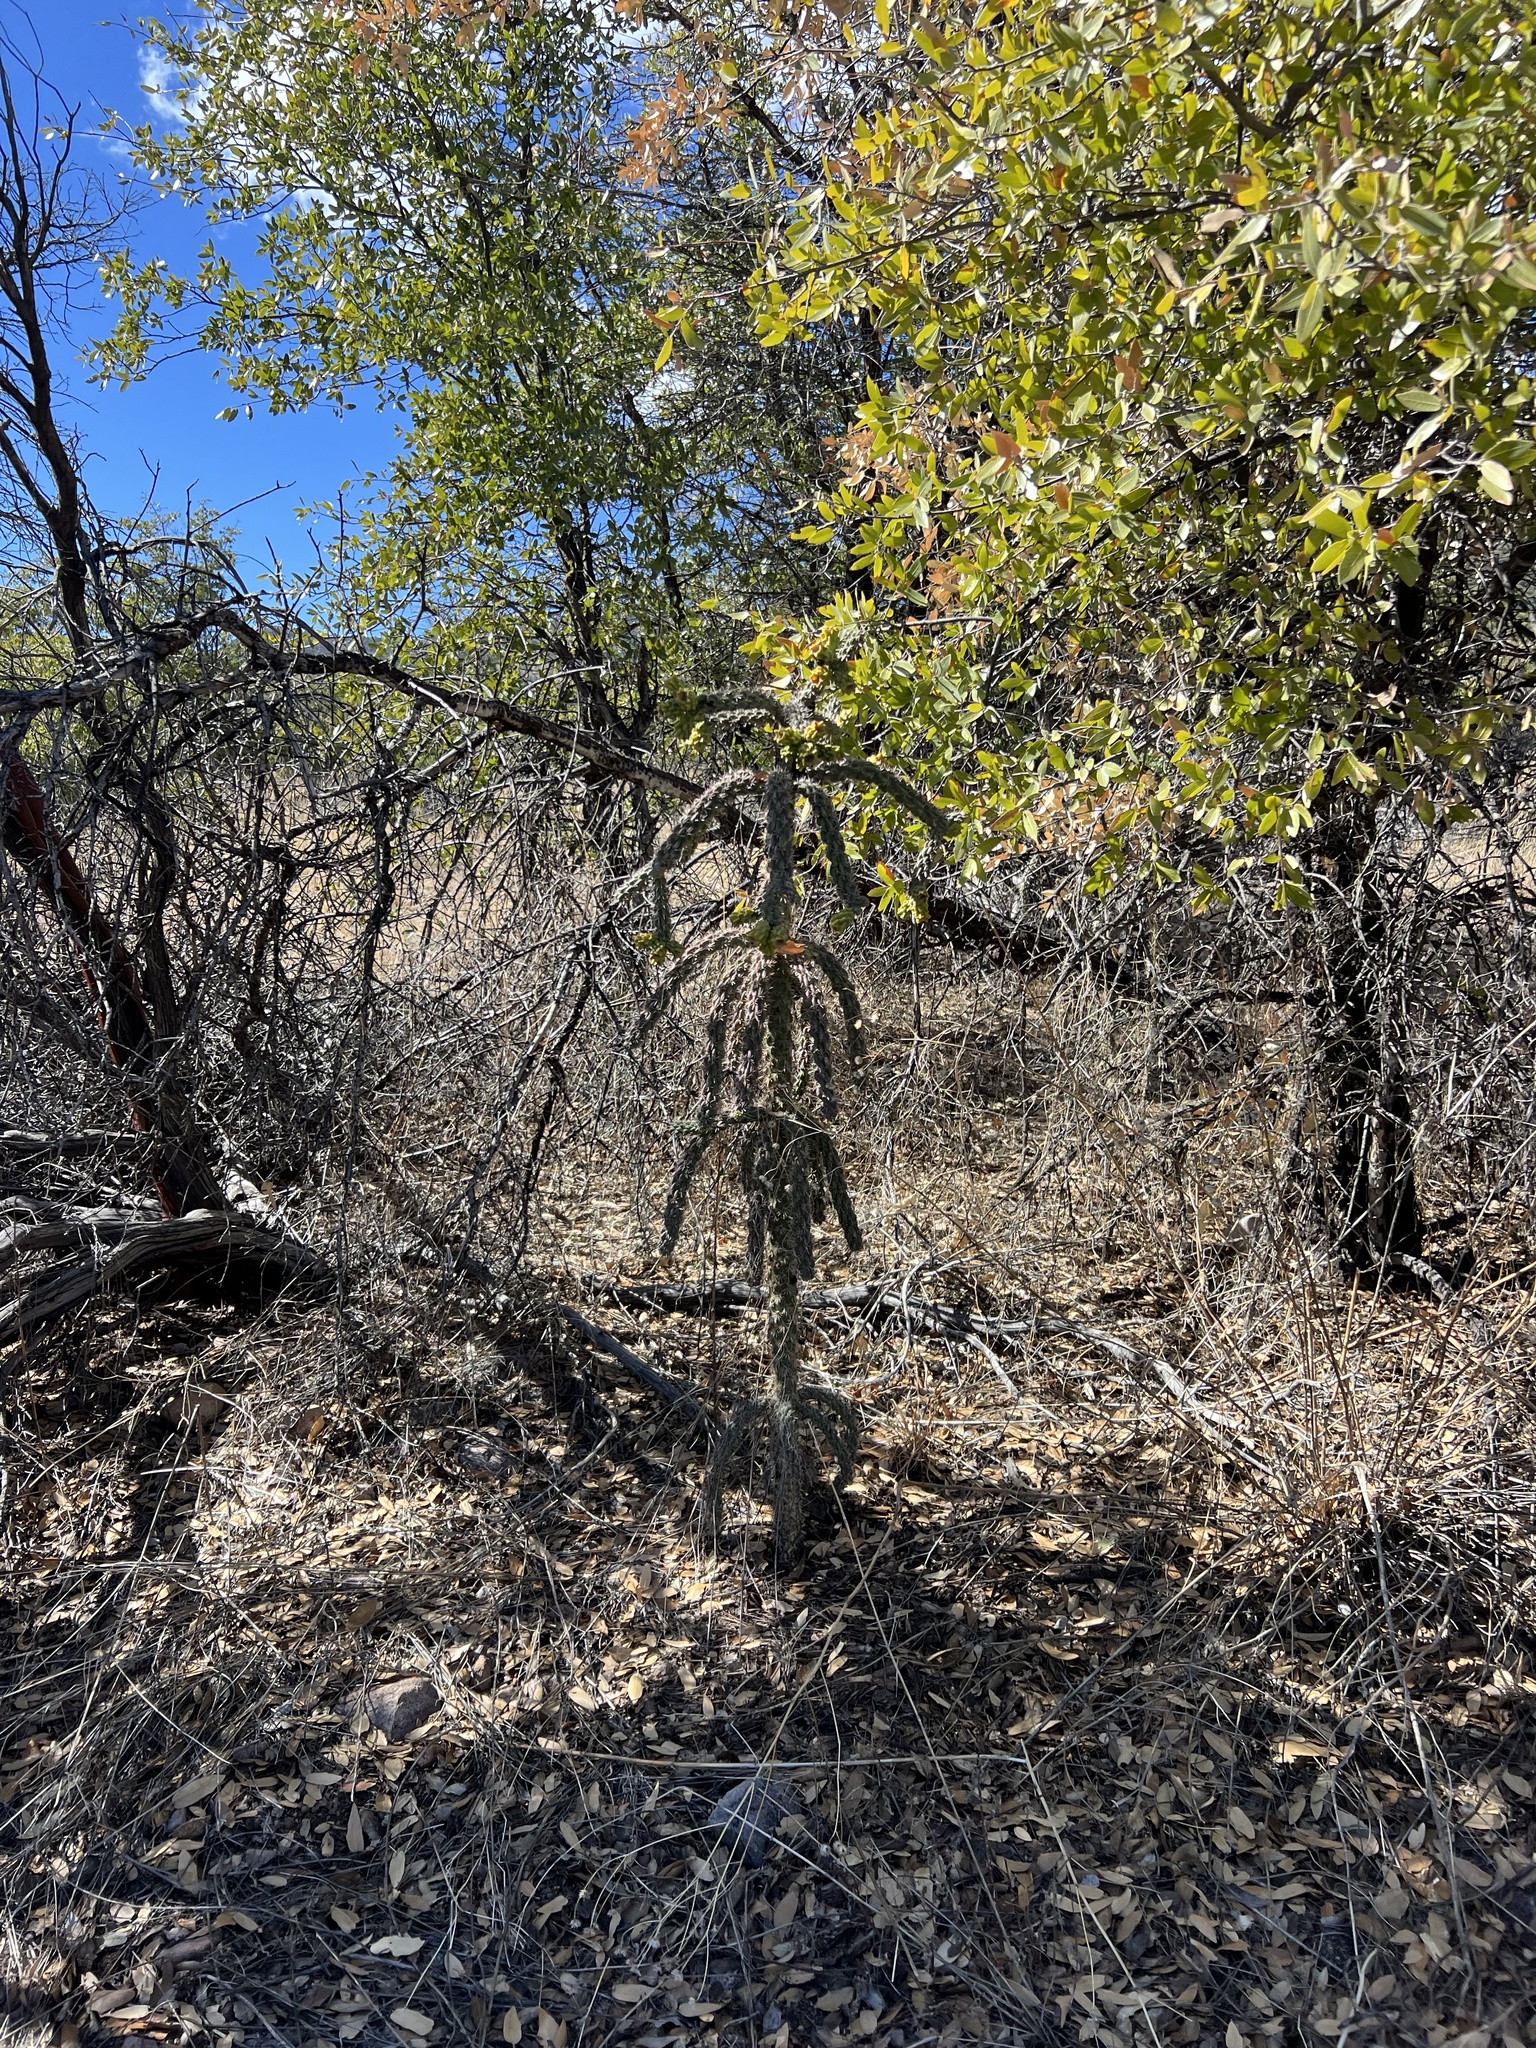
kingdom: Plantae
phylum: Tracheophyta
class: Magnoliopsida
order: Caryophyllales
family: Cactaceae
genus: Cylindropuntia
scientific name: Cylindropuntia imbricata
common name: Candelabrum cactus
